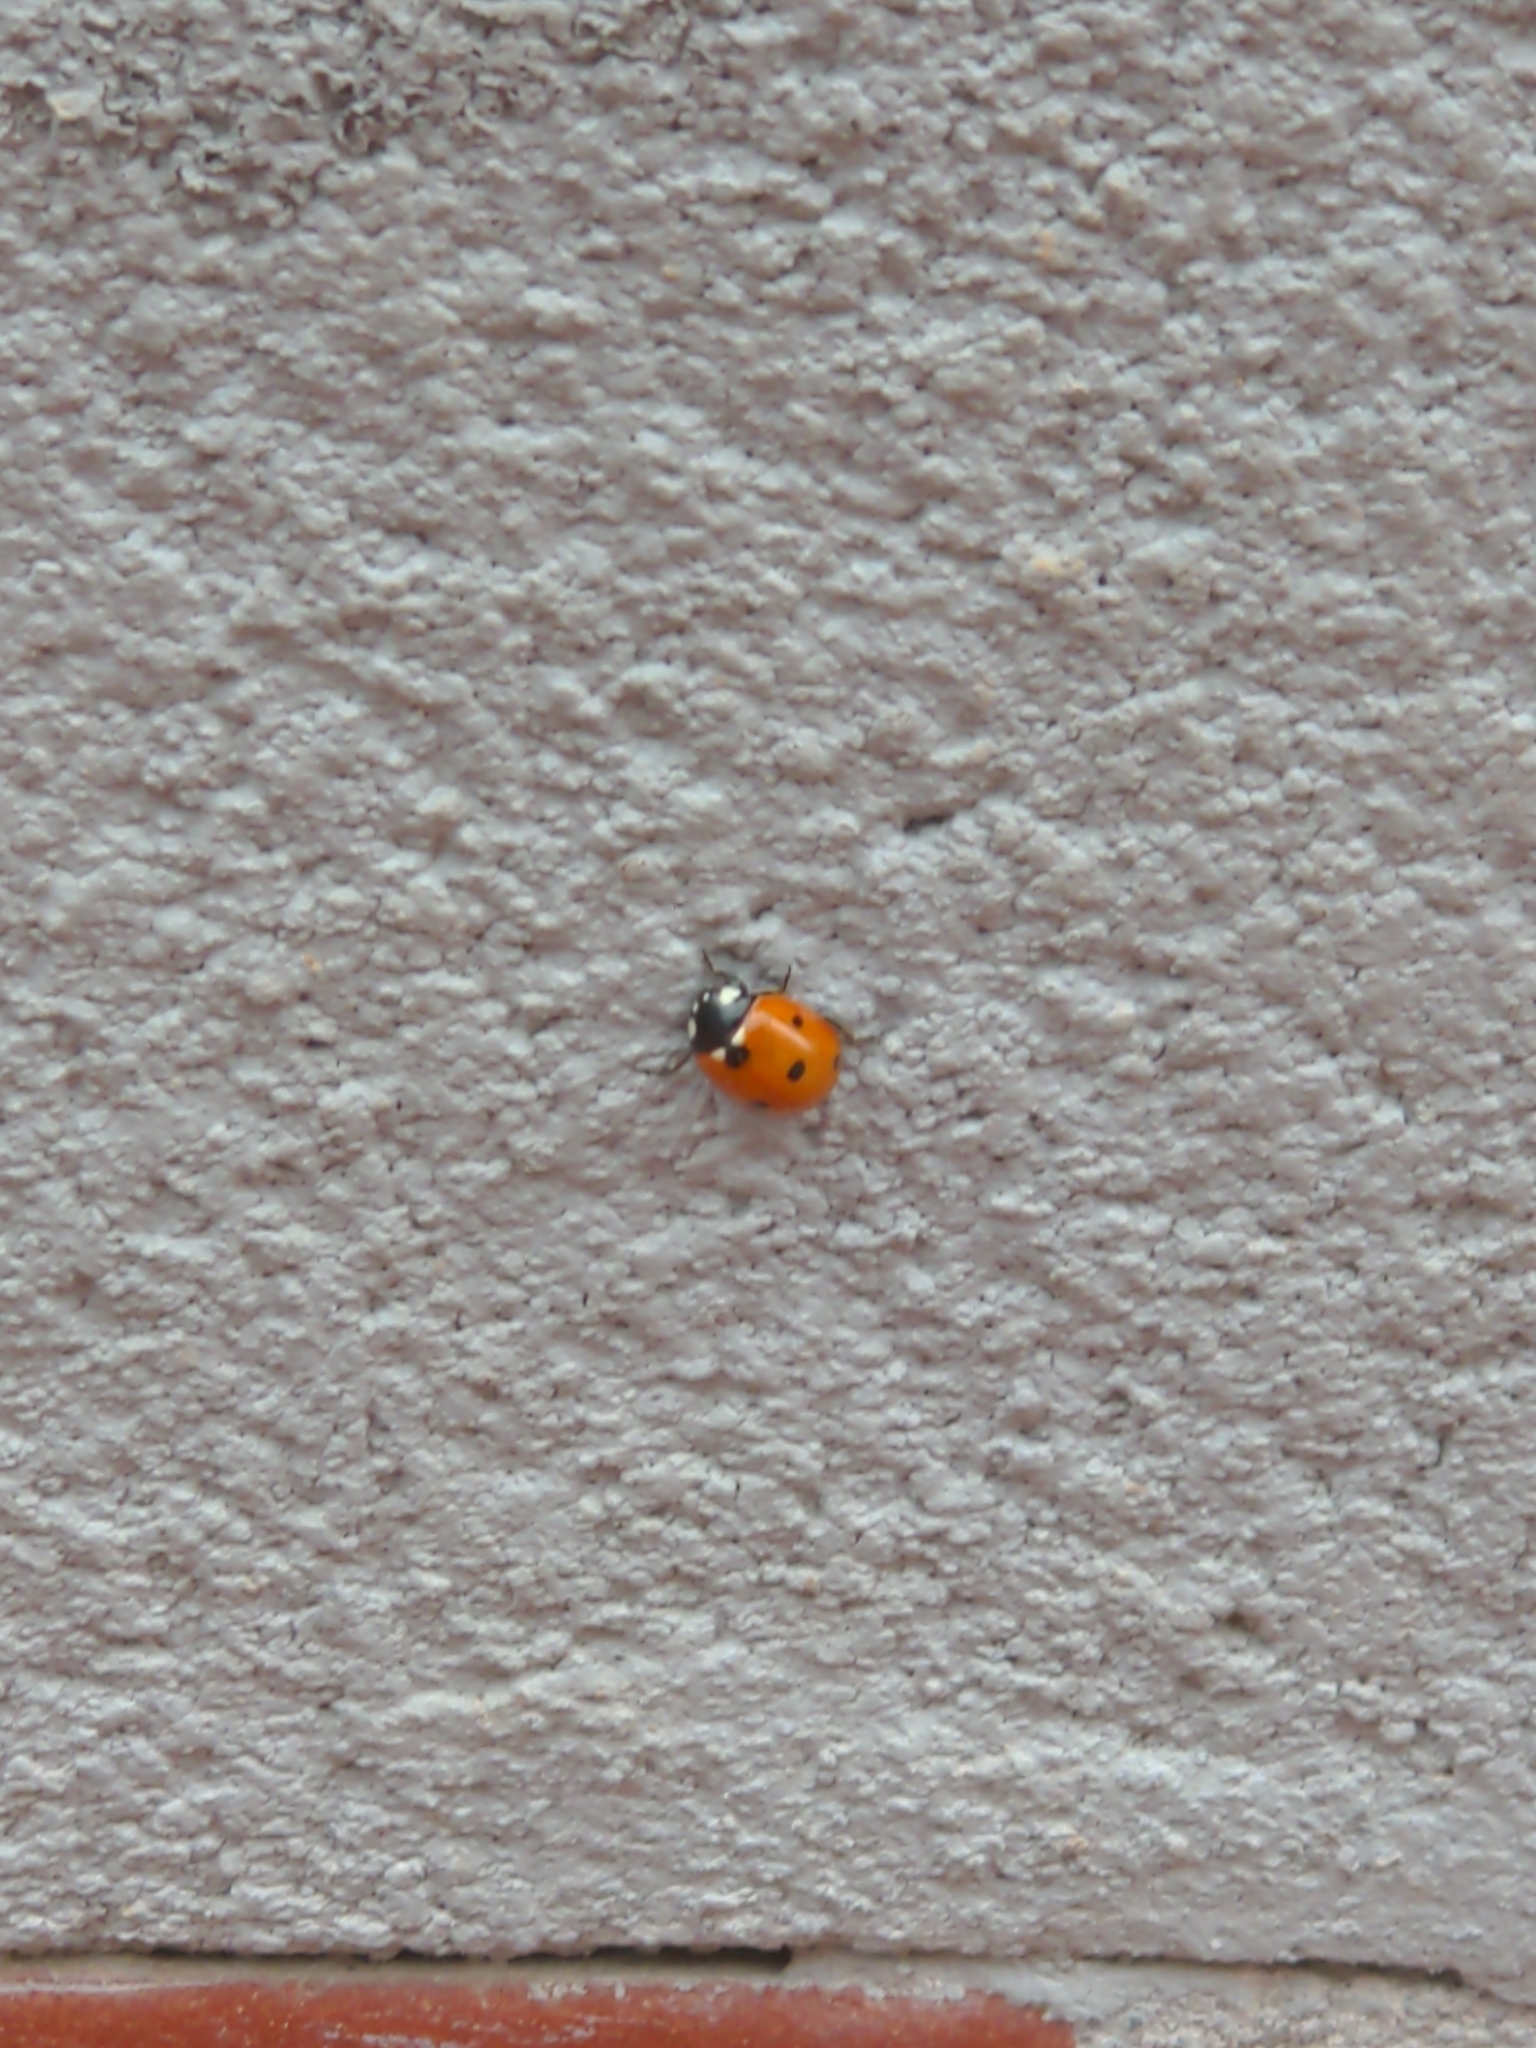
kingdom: Animalia
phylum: Arthropoda
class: Insecta
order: Coleoptera
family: Coccinellidae
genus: Coccinella
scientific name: Coccinella septempunctata
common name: Sevenspotted lady beetle
